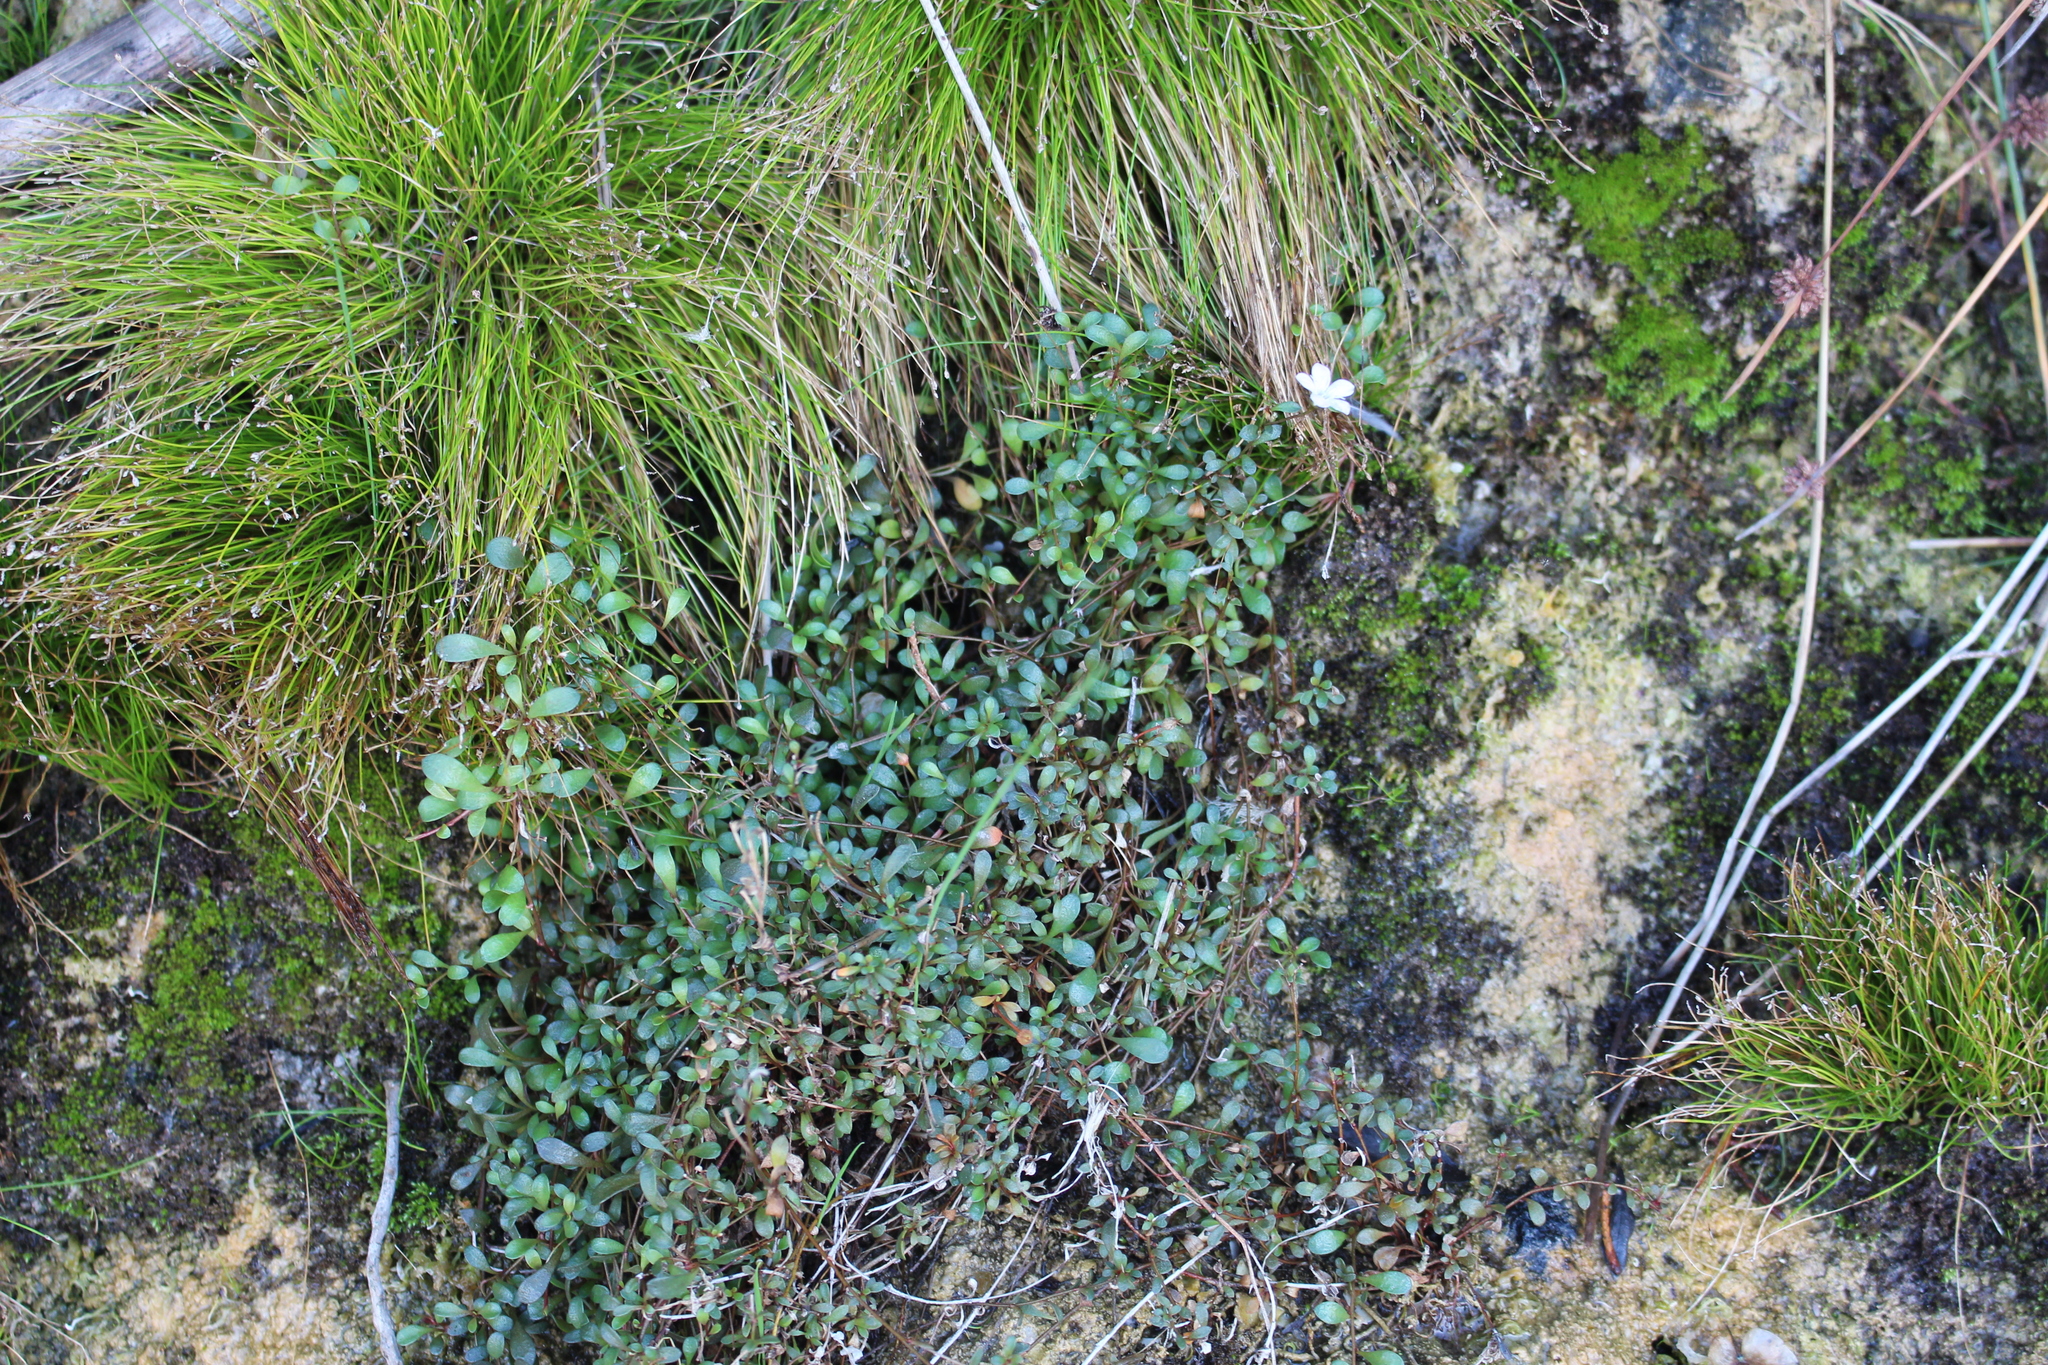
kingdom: Plantae
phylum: Tracheophyta
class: Magnoliopsida
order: Ericales
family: Primulaceae
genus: Samolus
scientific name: Samolus repens
